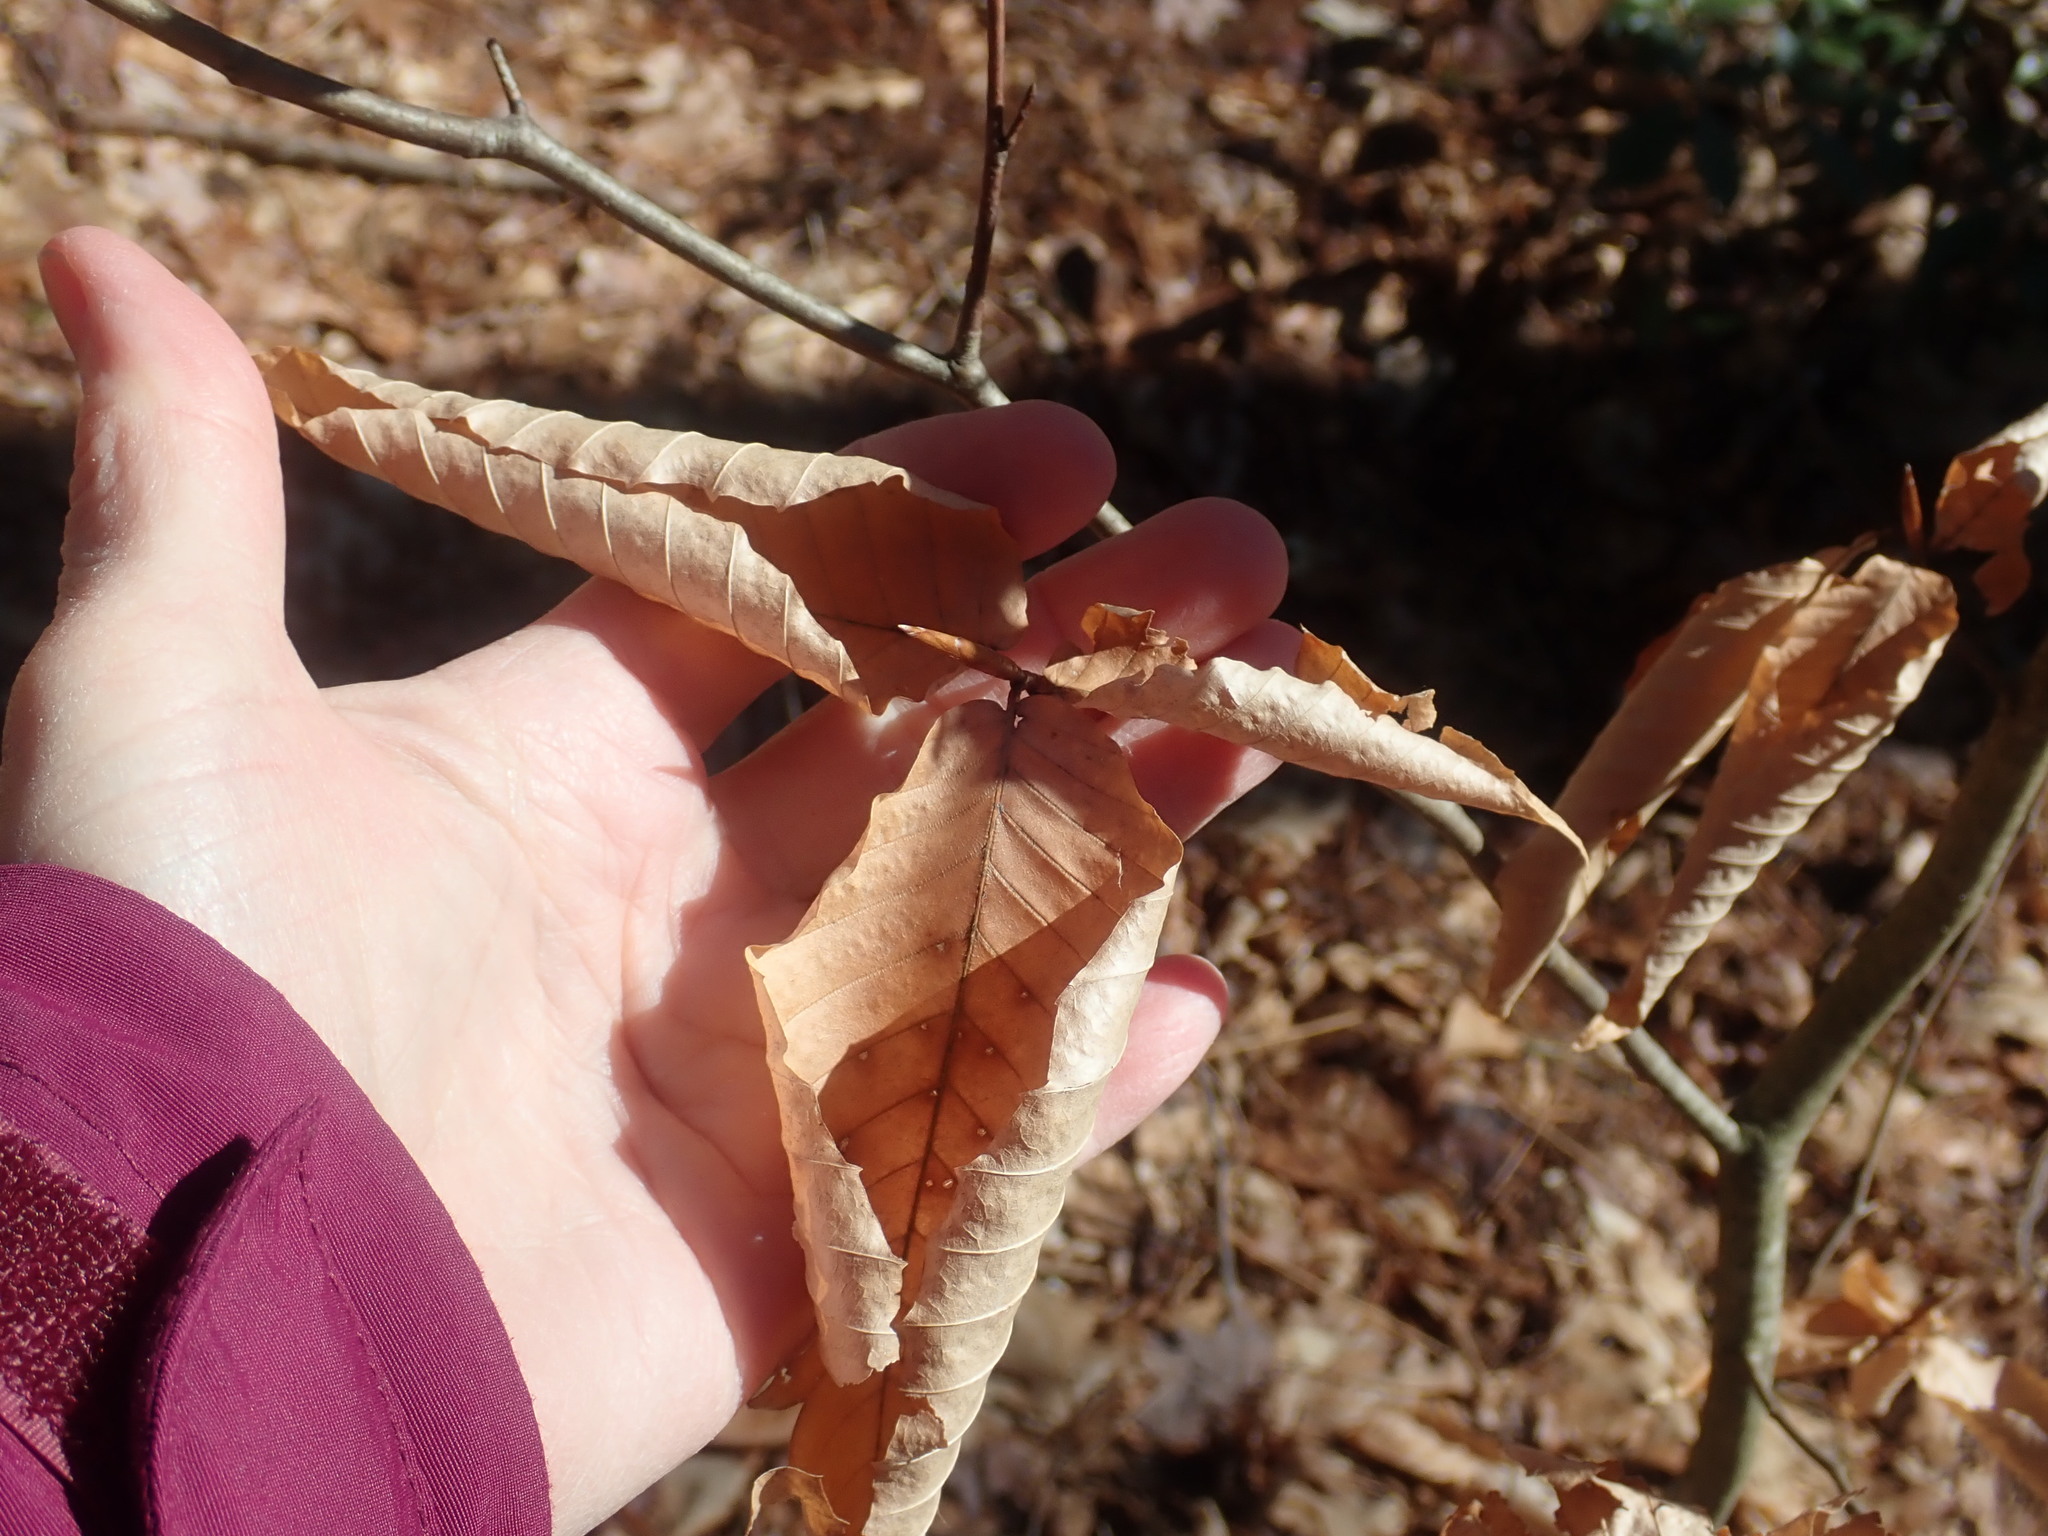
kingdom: Plantae
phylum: Tracheophyta
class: Magnoliopsida
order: Fagales
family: Fagaceae
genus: Fagus
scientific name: Fagus grandifolia
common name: American beech
